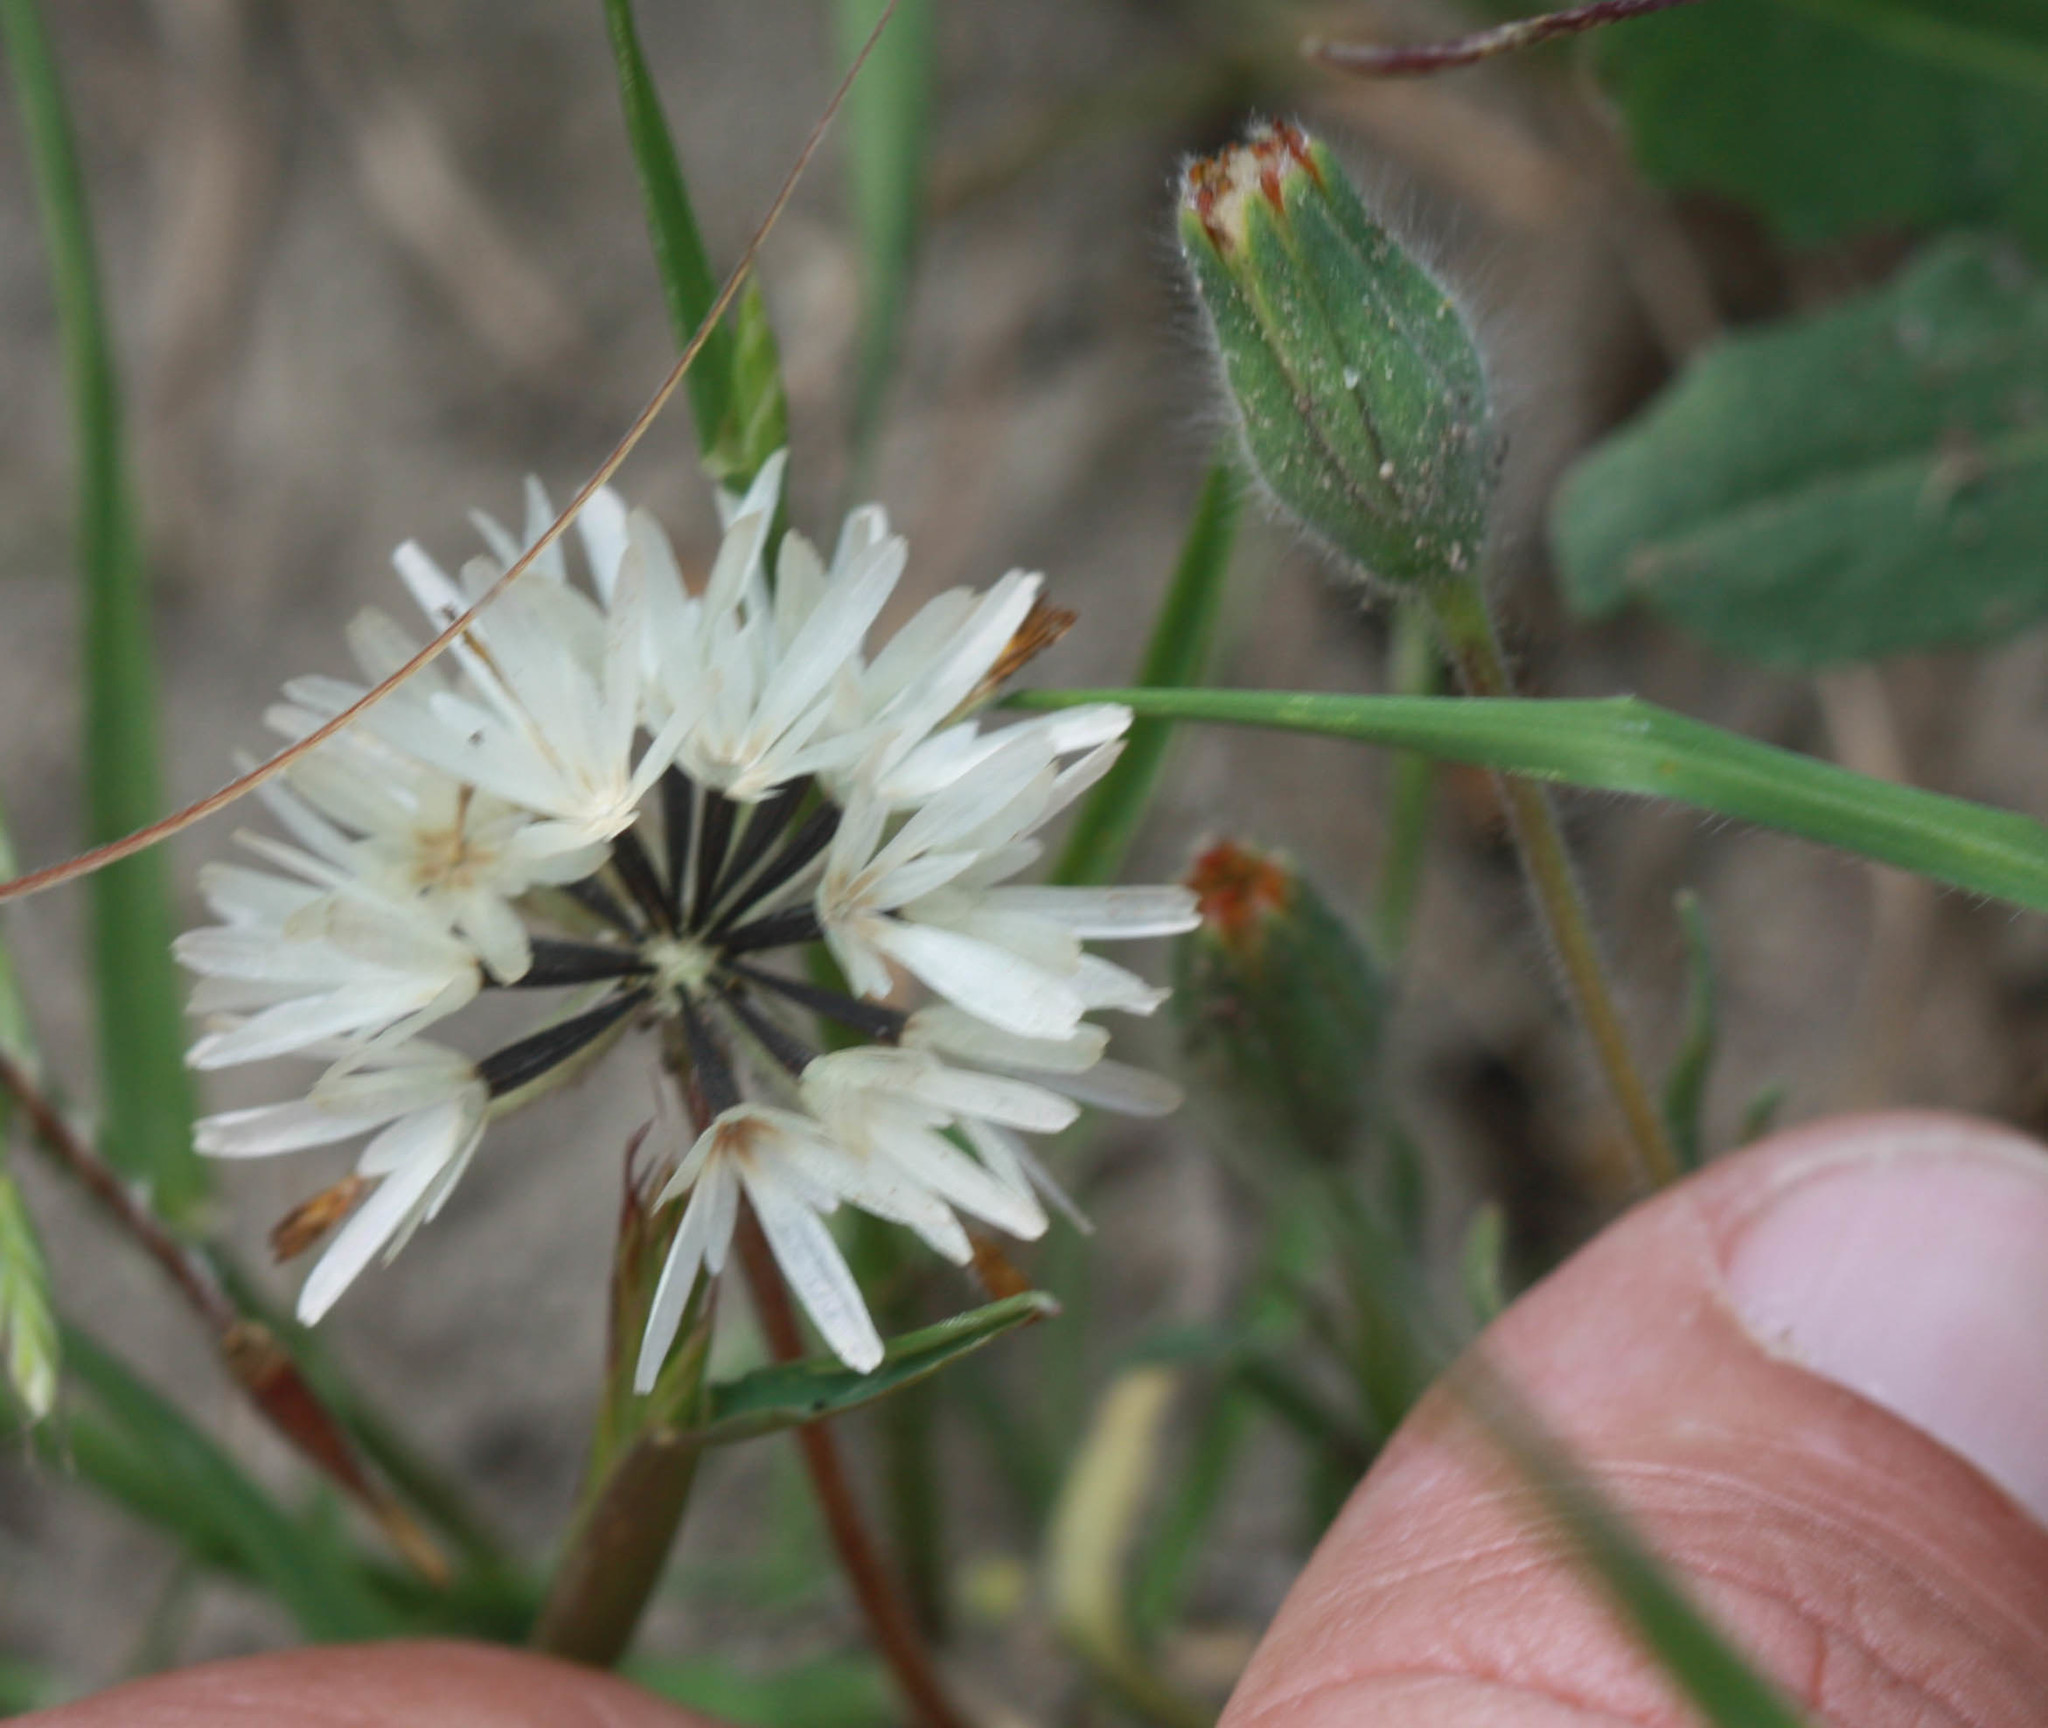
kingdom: Plantae
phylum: Tracheophyta
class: Magnoliopsida
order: Asterales
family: Asteraceae
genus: Achyrachaena
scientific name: Achyrachaena mollis
